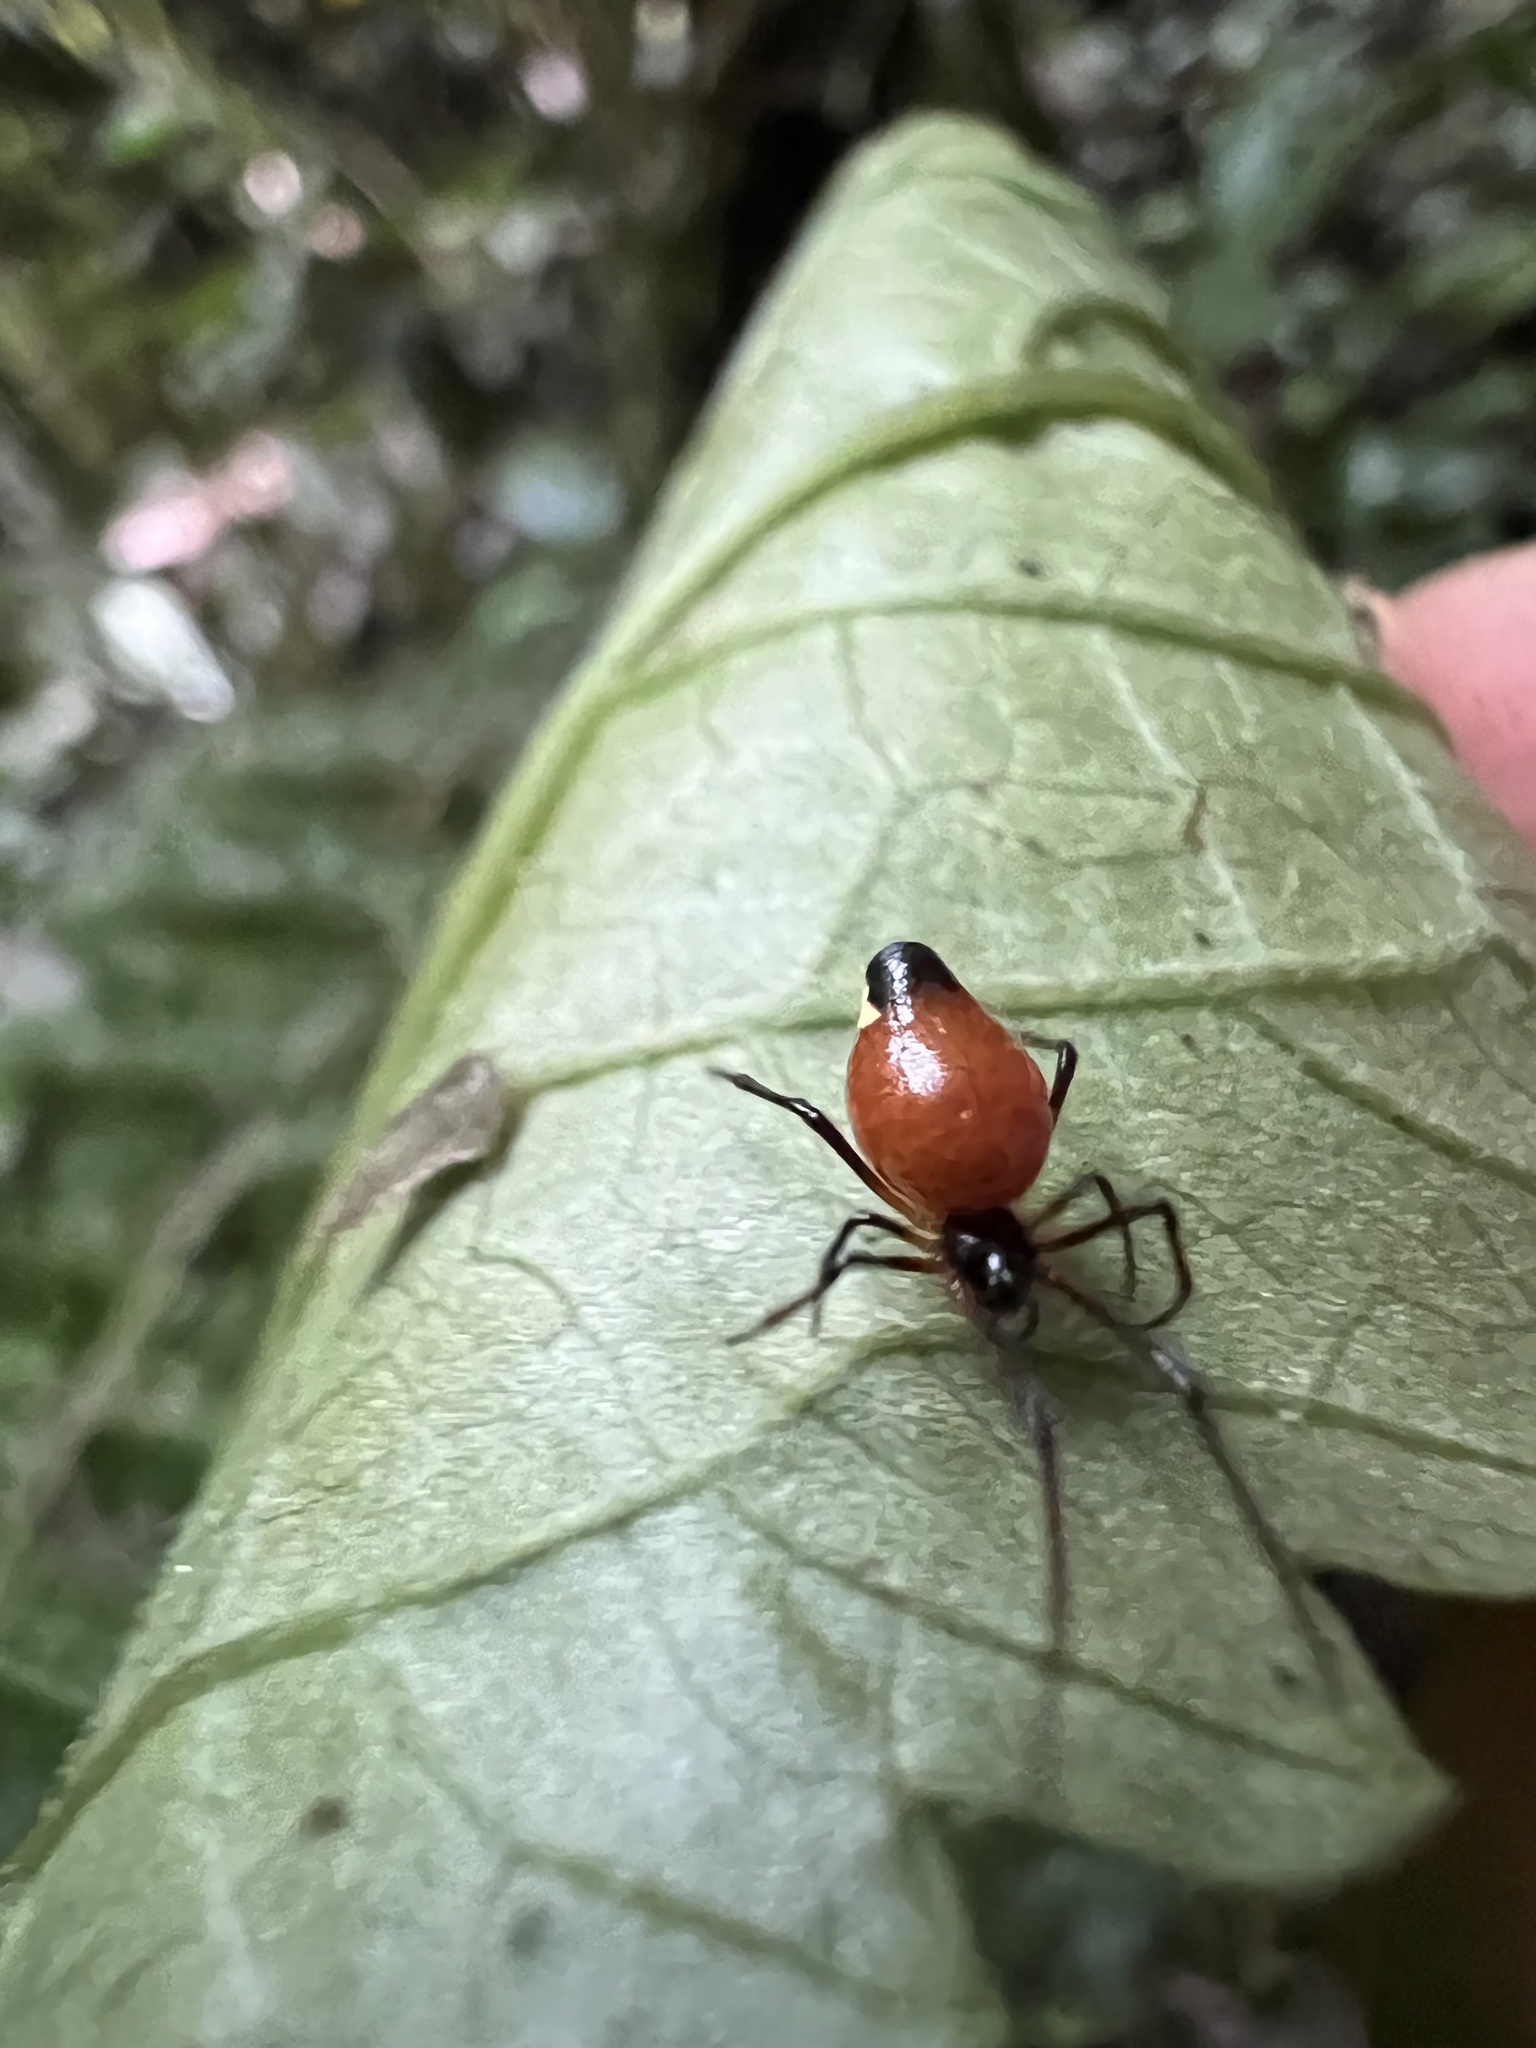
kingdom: Animalia
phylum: Arthropoda
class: Arachnida
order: Araneae
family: Theridiidae
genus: Chrysso
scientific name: Chrysso nigriceps
